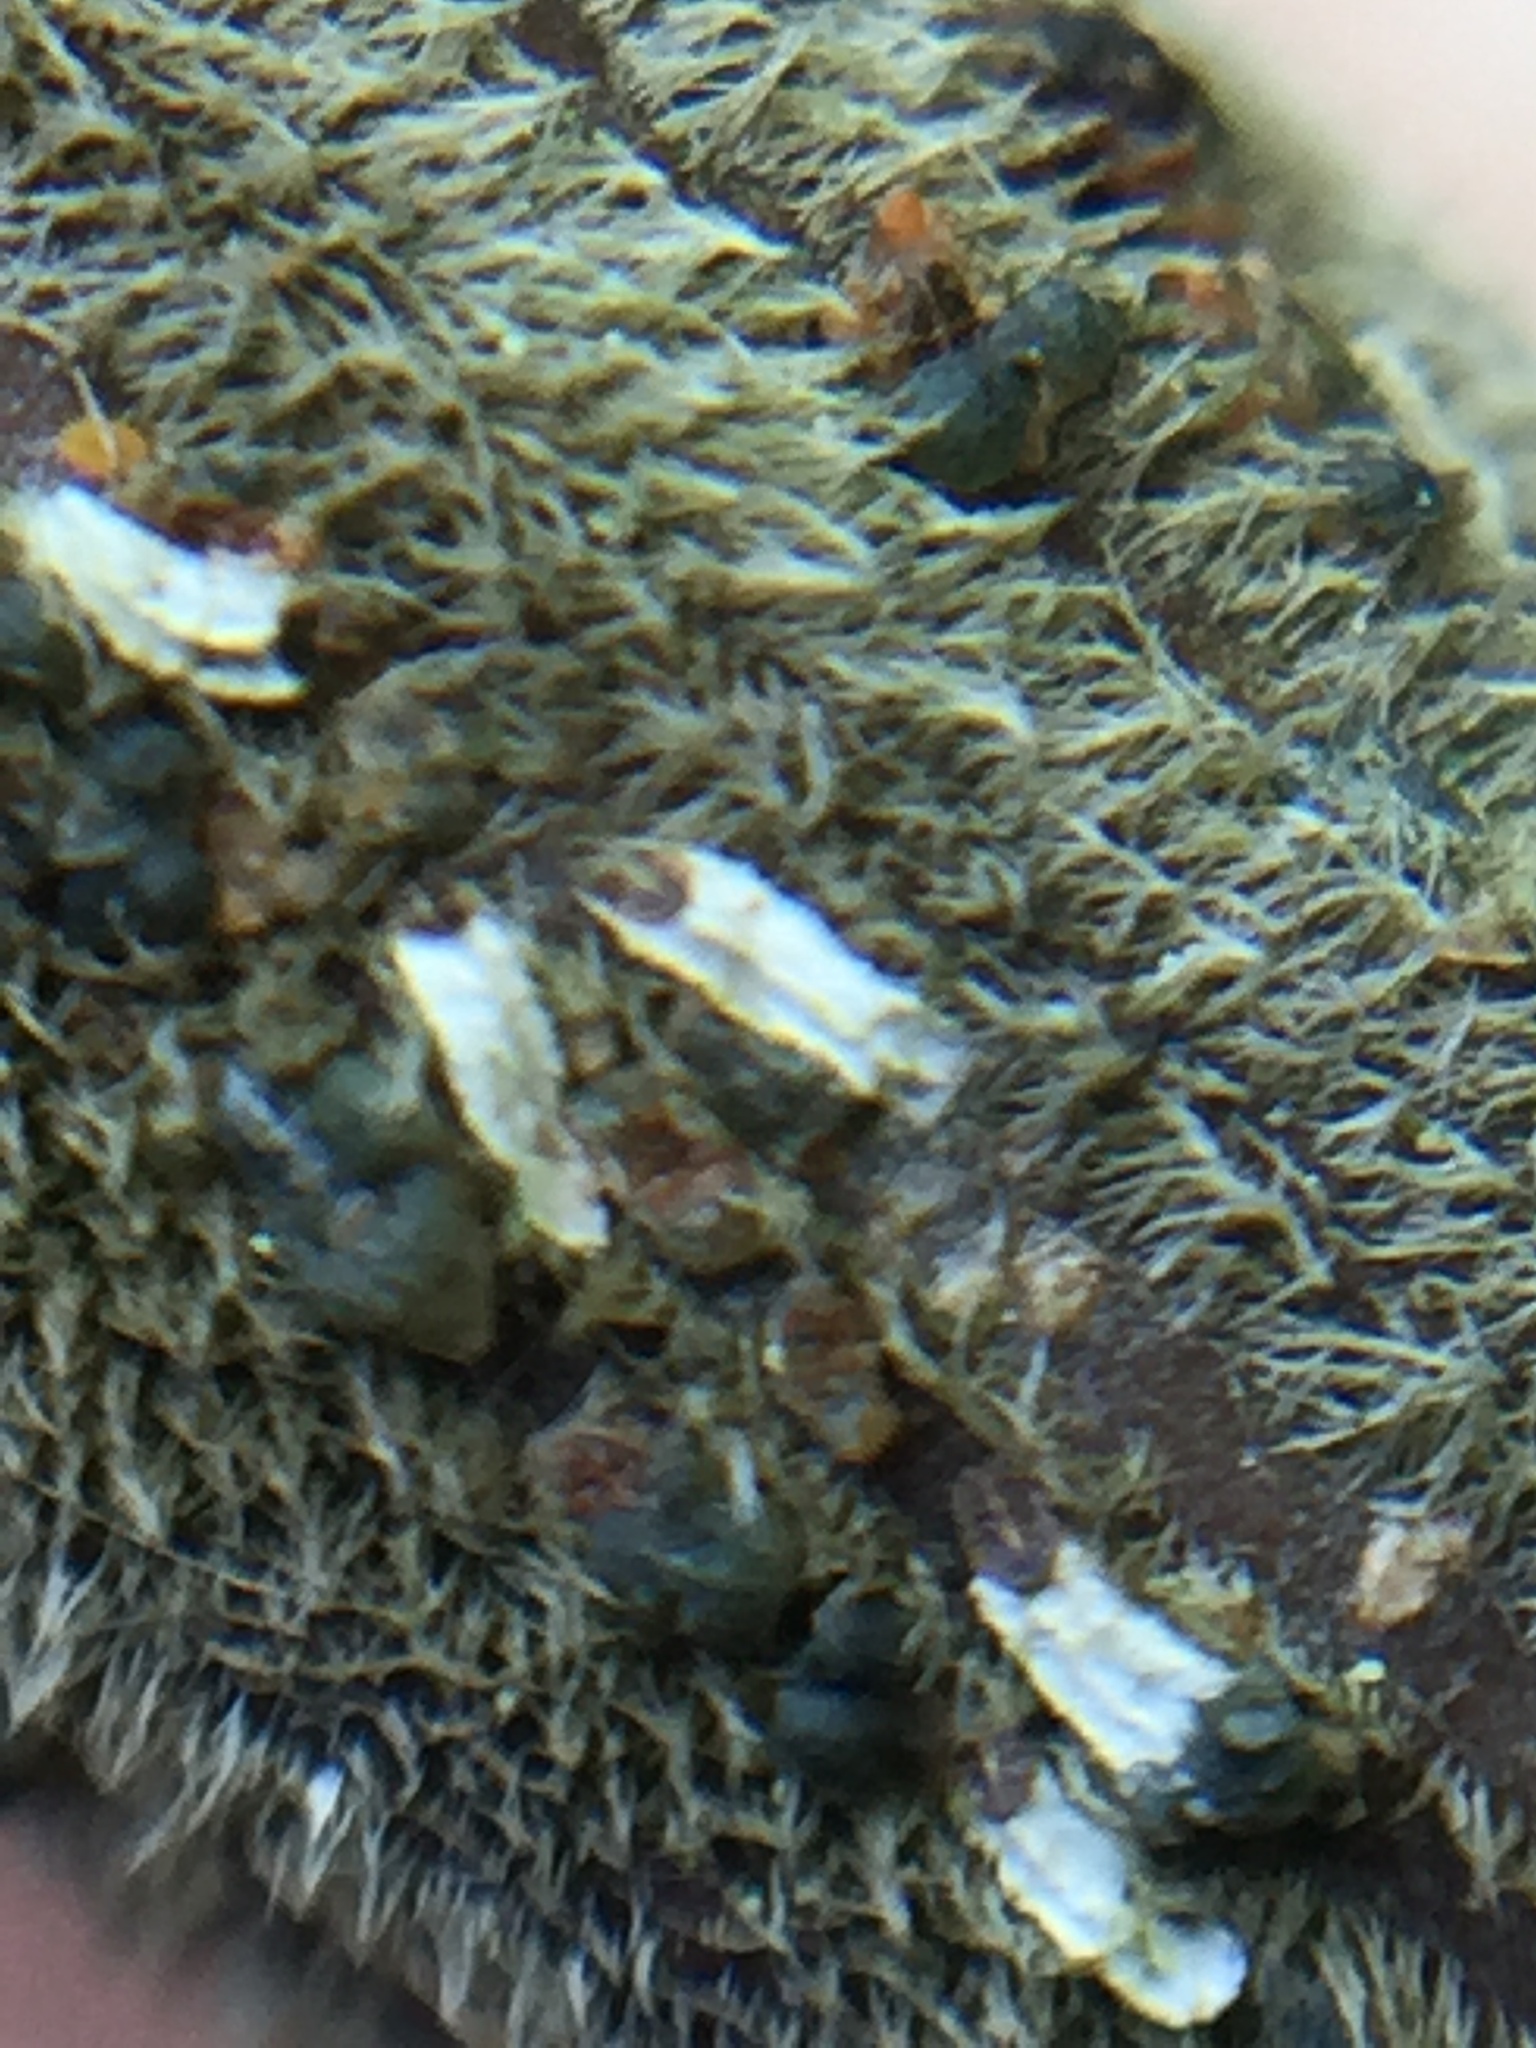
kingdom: Animalia
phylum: Arthropoda
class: Insecta
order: Hemiptera
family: Diaspididae
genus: Trullifiorinia
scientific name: Trullifiorinia acaciae
